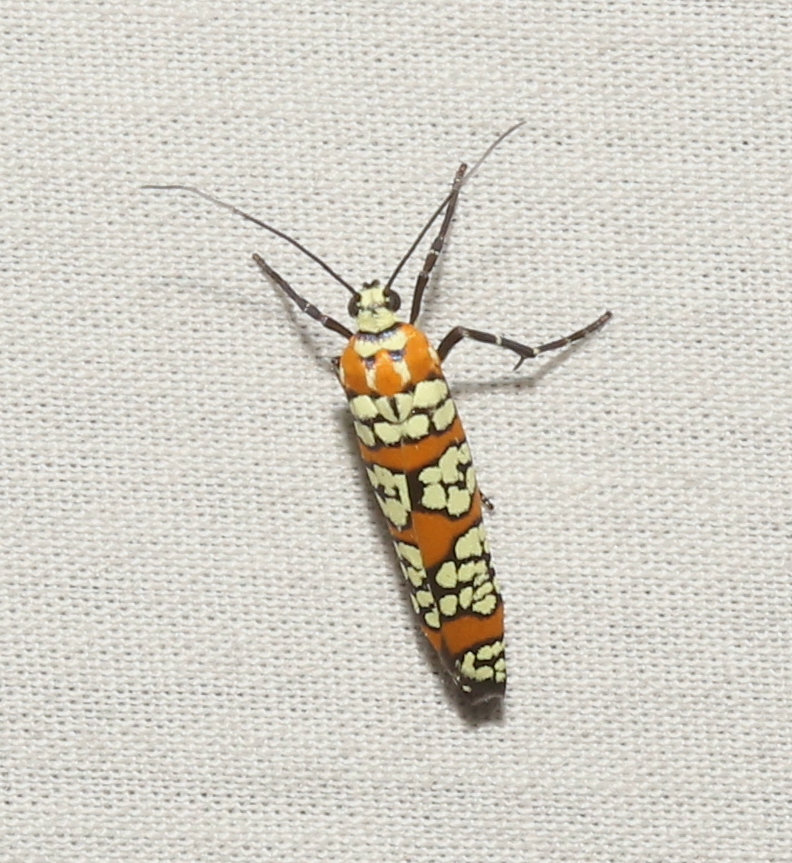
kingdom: Animalia
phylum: Arthropoda
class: Insecta
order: Lepidoptera
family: Attevidae
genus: Atteva
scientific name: Atteva punctella
